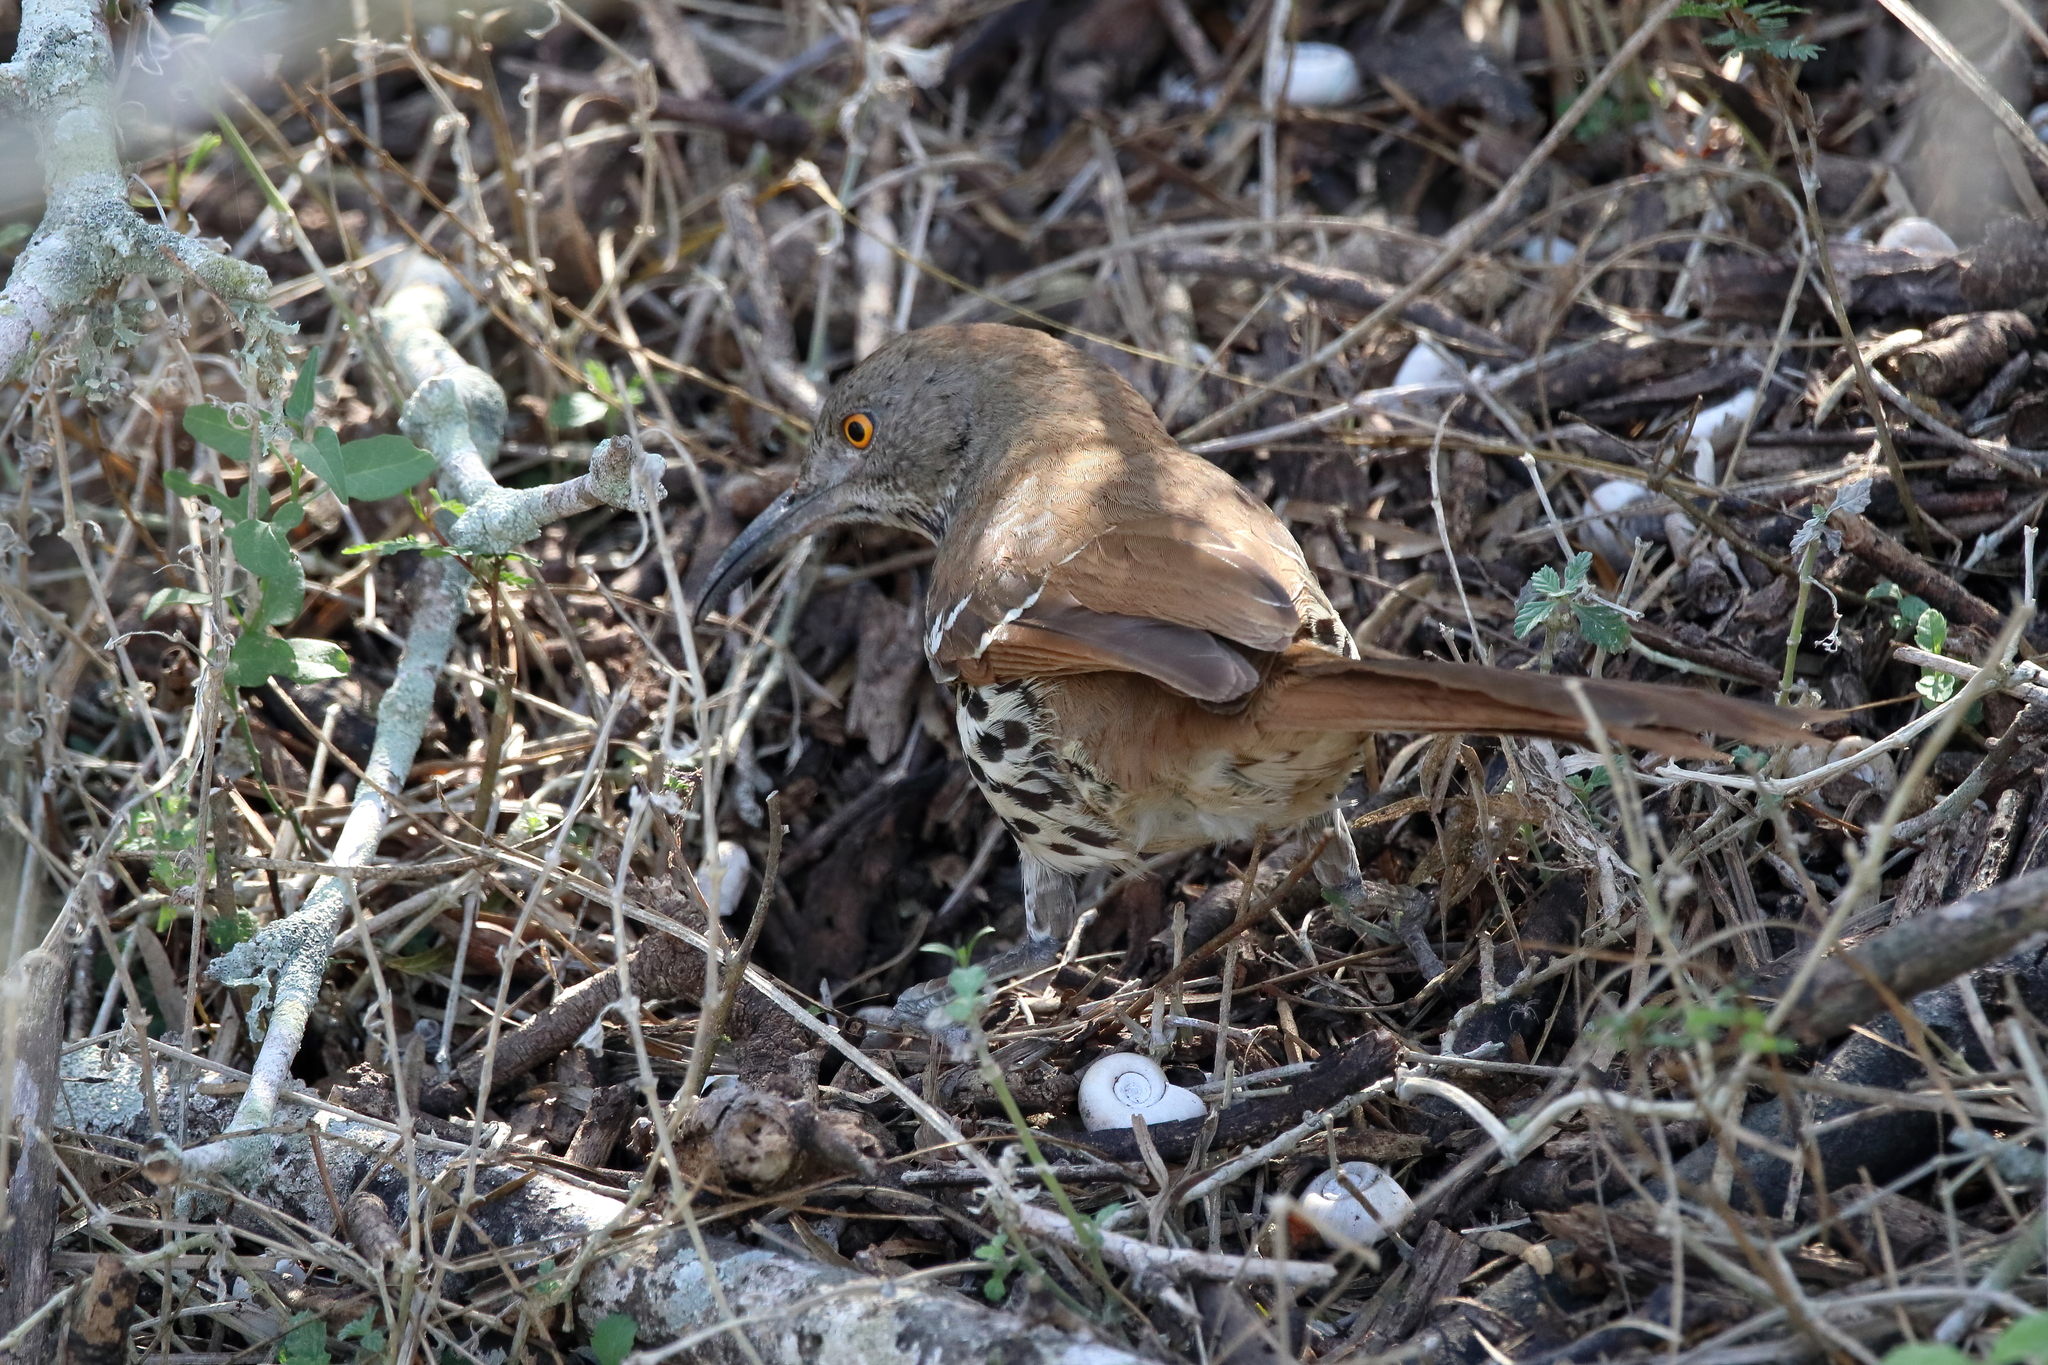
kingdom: Animalia
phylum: Chordata
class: Aves
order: Passeriformes
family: Mimidae
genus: Toxostoma
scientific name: Toxostoma longirostre
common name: Long-billed thrasher
